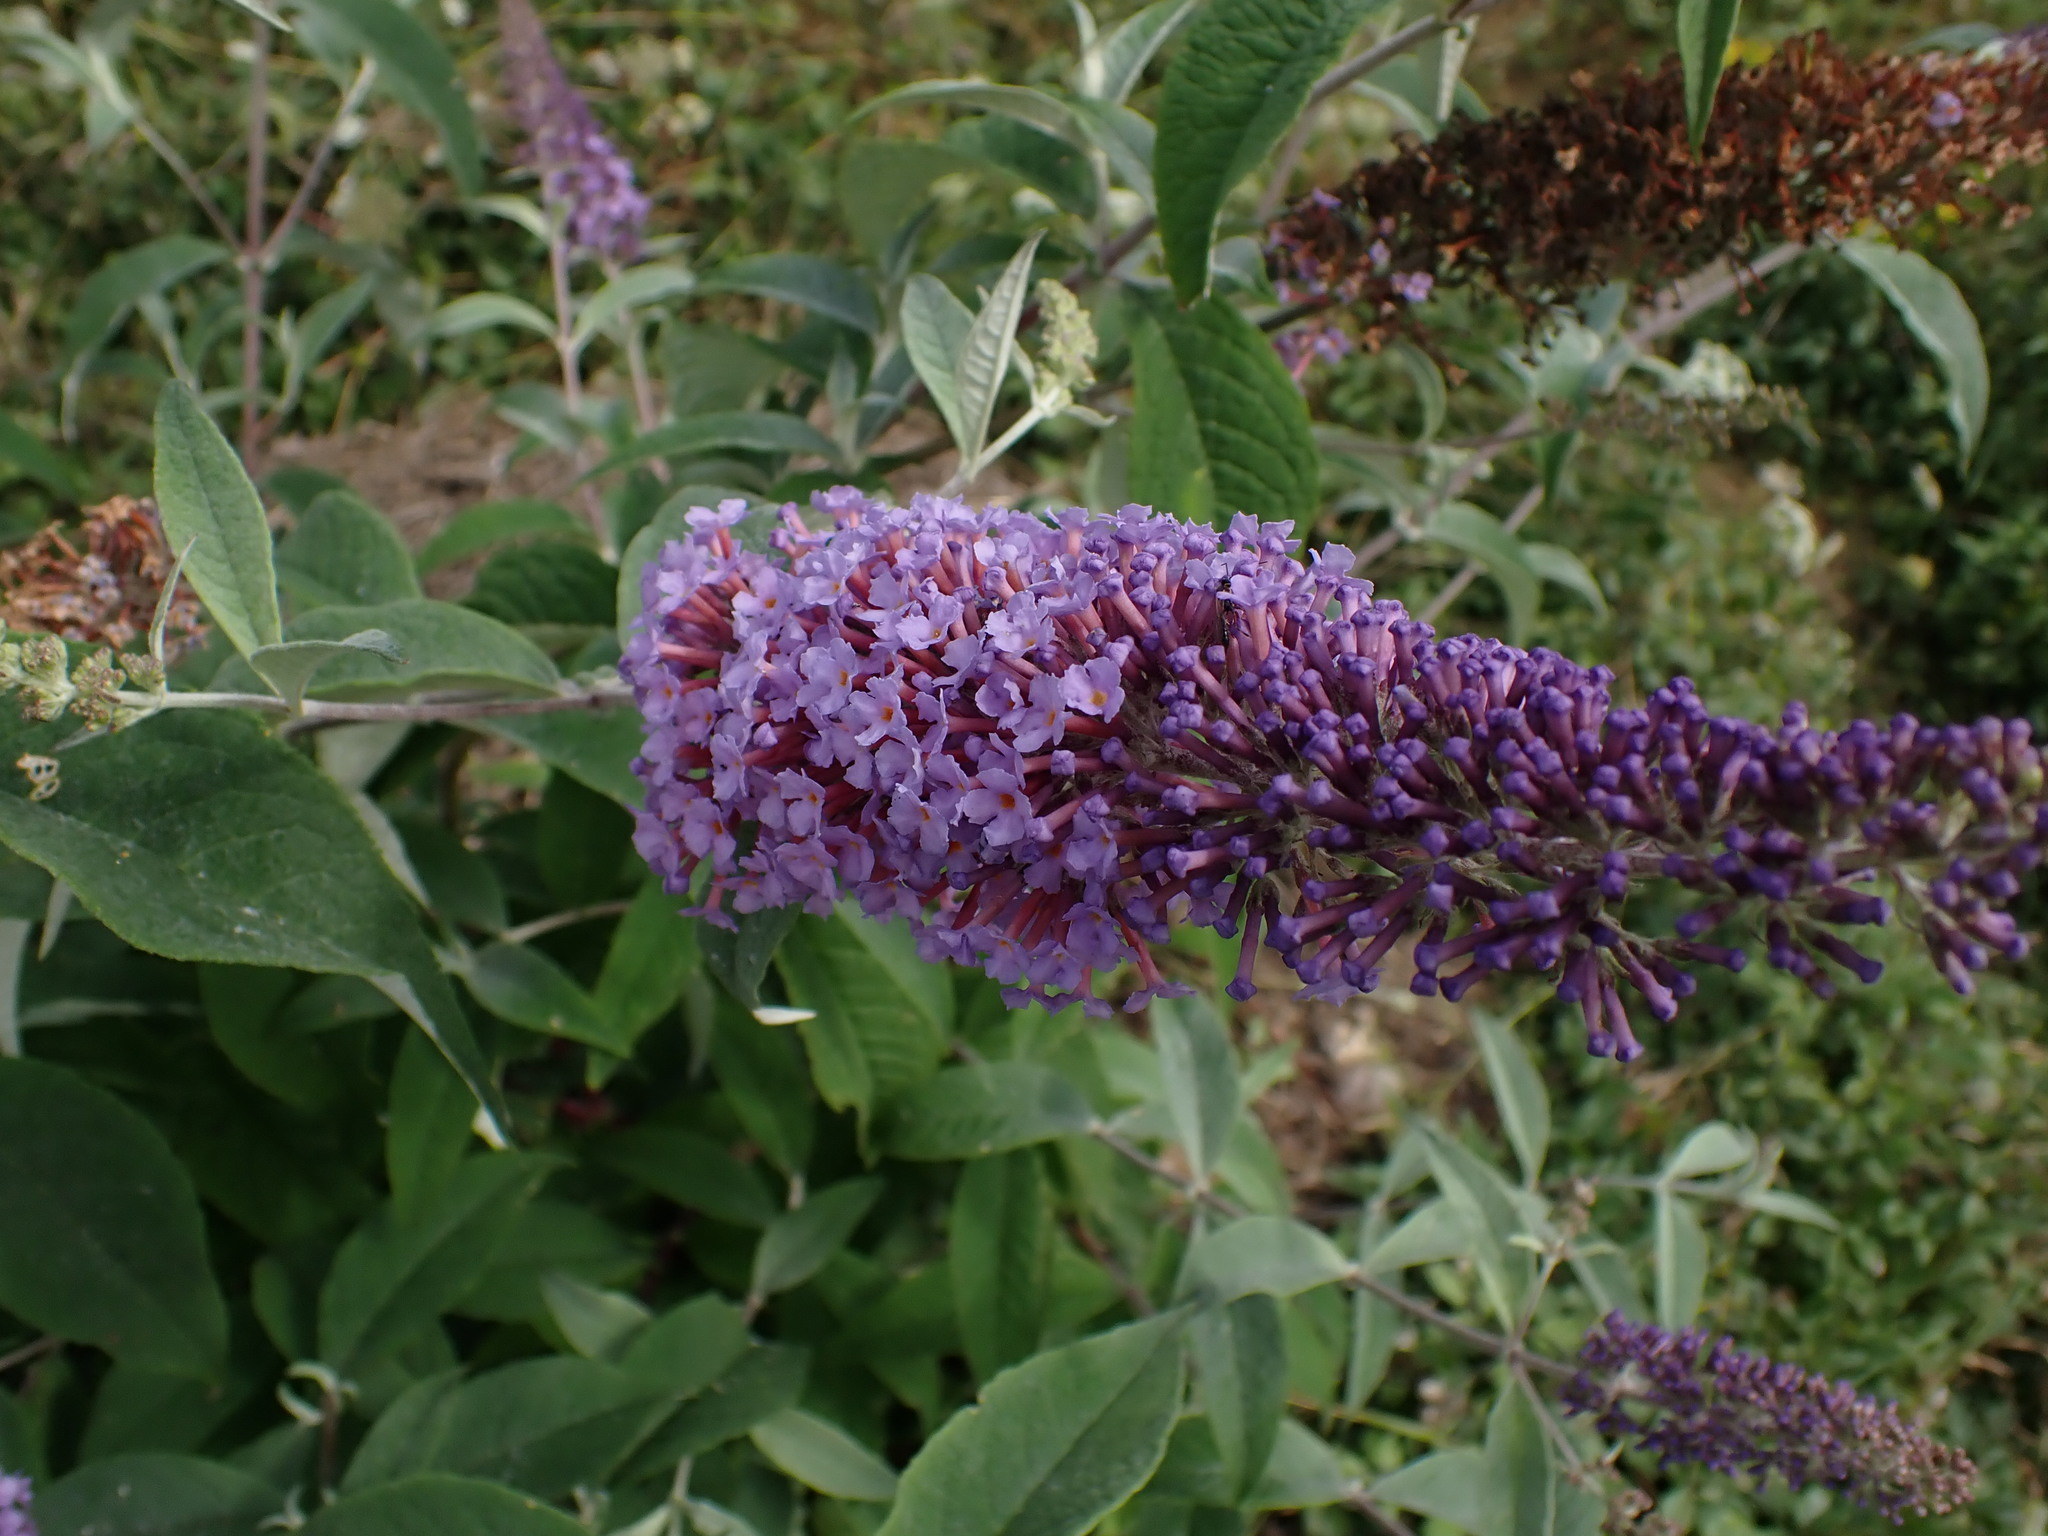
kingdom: Plantae
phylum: Tracheophyta
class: Magnoliopsida
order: Lamiales
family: Scrophulariaceae
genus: Buddleja
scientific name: Buddleja davidii
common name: Butterfly-bush
